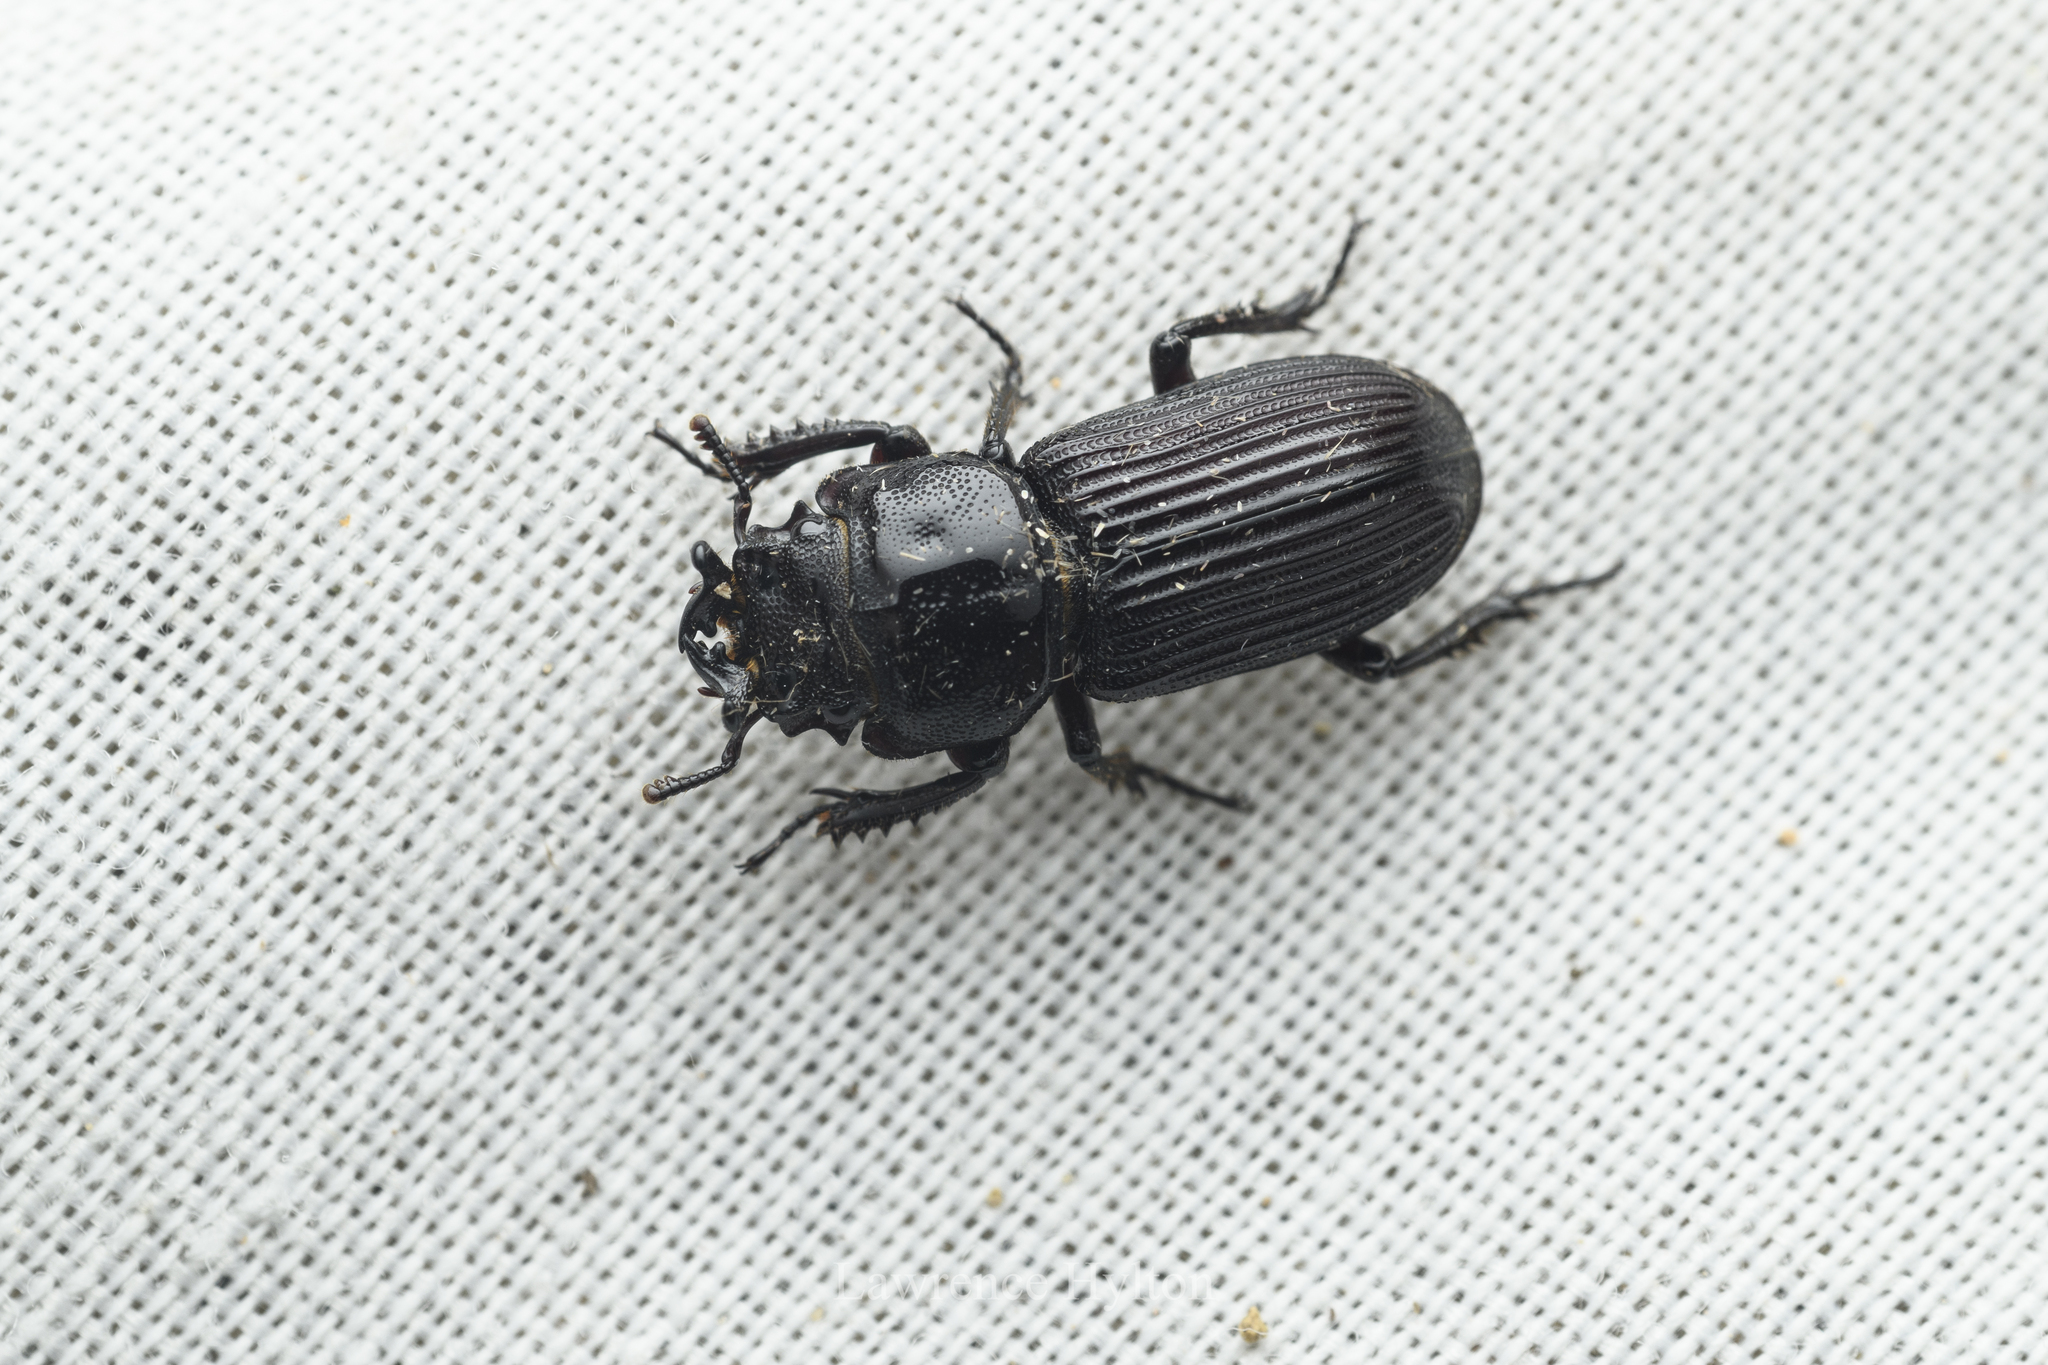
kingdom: Animalia
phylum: Arthropoda
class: Insecta
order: Coleoptera
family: Lucanidae
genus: Nigidius
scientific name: Nigidius sinicus
